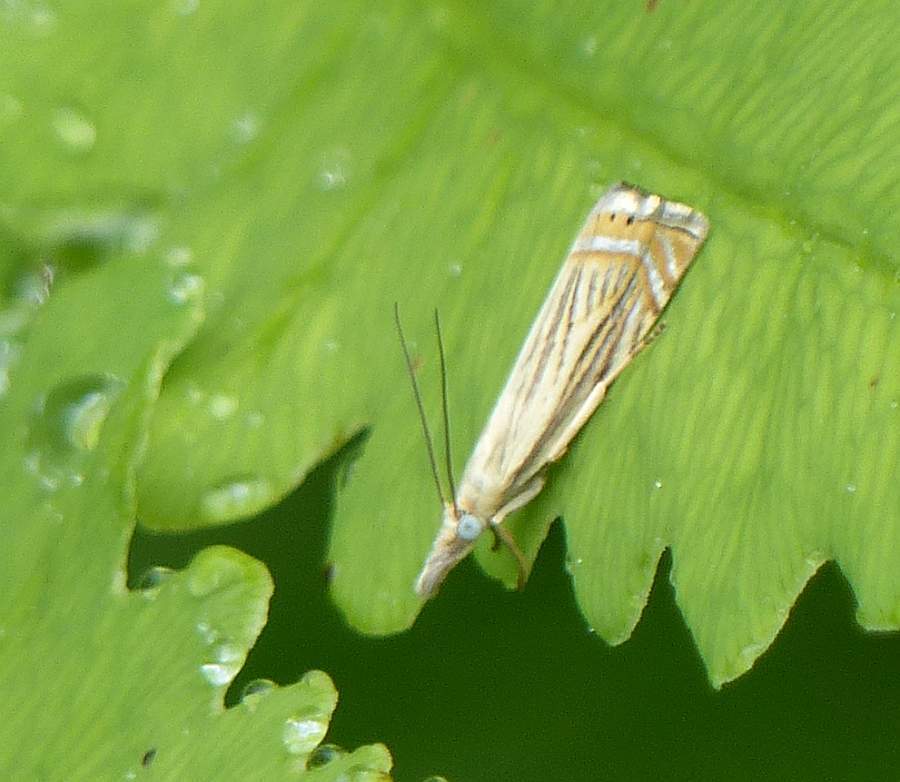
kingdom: Animalia
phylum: Arthropoda
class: Insecta
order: Lepidoptera
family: Crambidae
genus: Chrysoteuchia
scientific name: Chrysoteuchia topiarius
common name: Topiary grass-veneer
